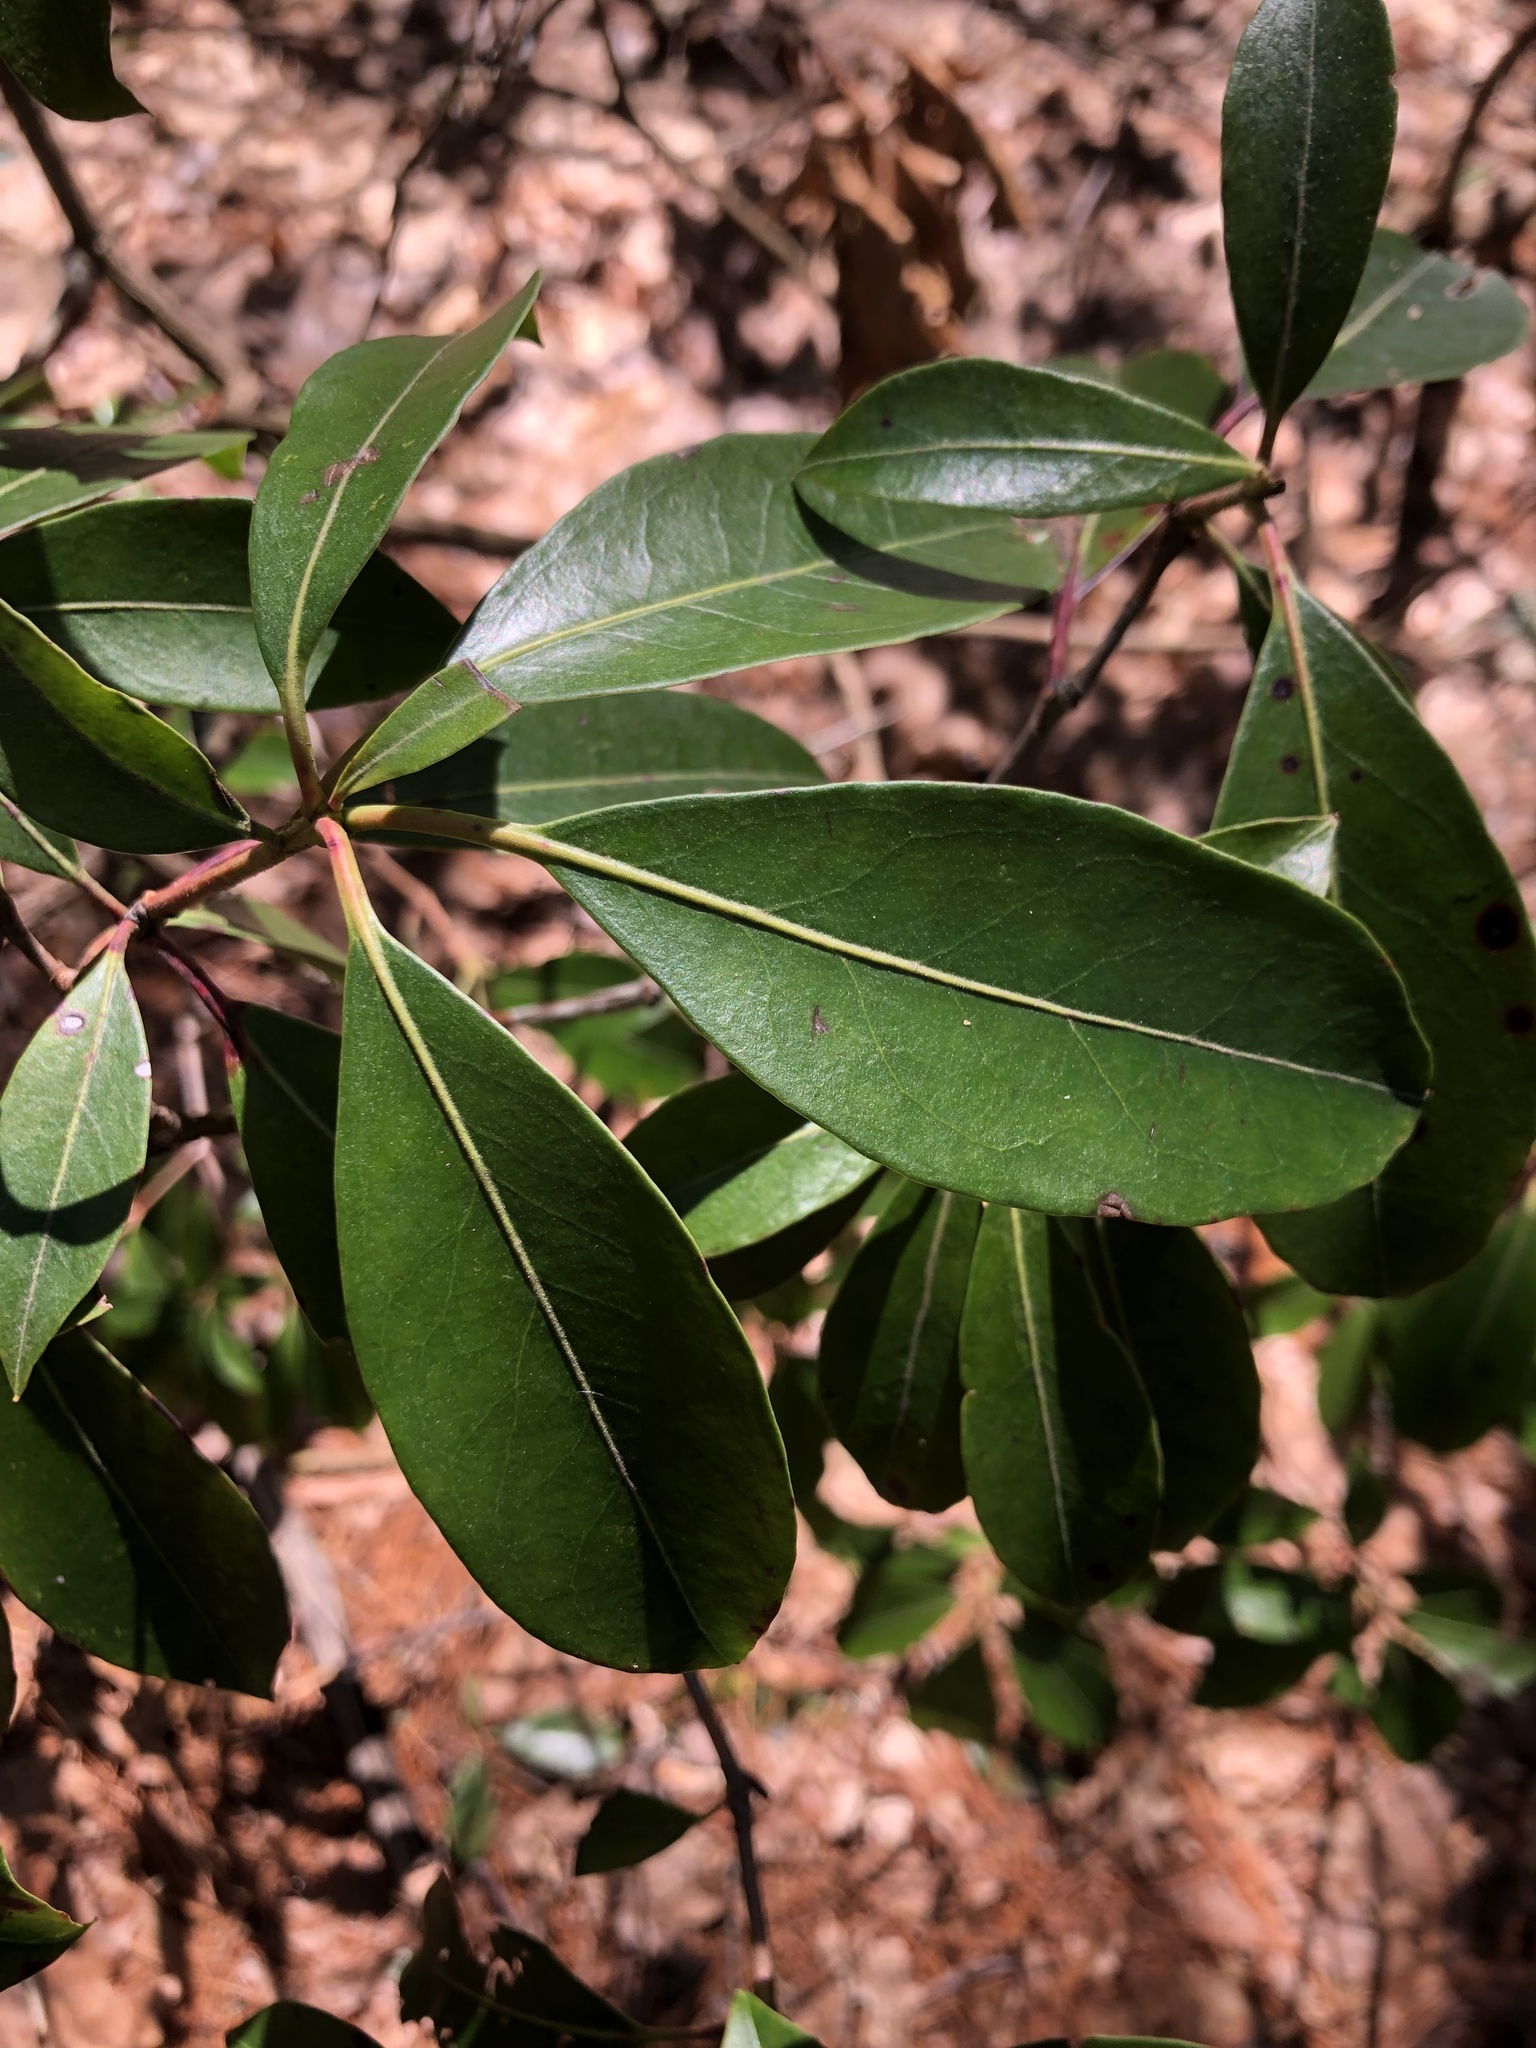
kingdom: Plantae
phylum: Tracheophyta
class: Magnoliopsida
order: Ericales
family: Ericaceae
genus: Kalmia
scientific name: Kalmia latifolia
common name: Mountain-laurel
